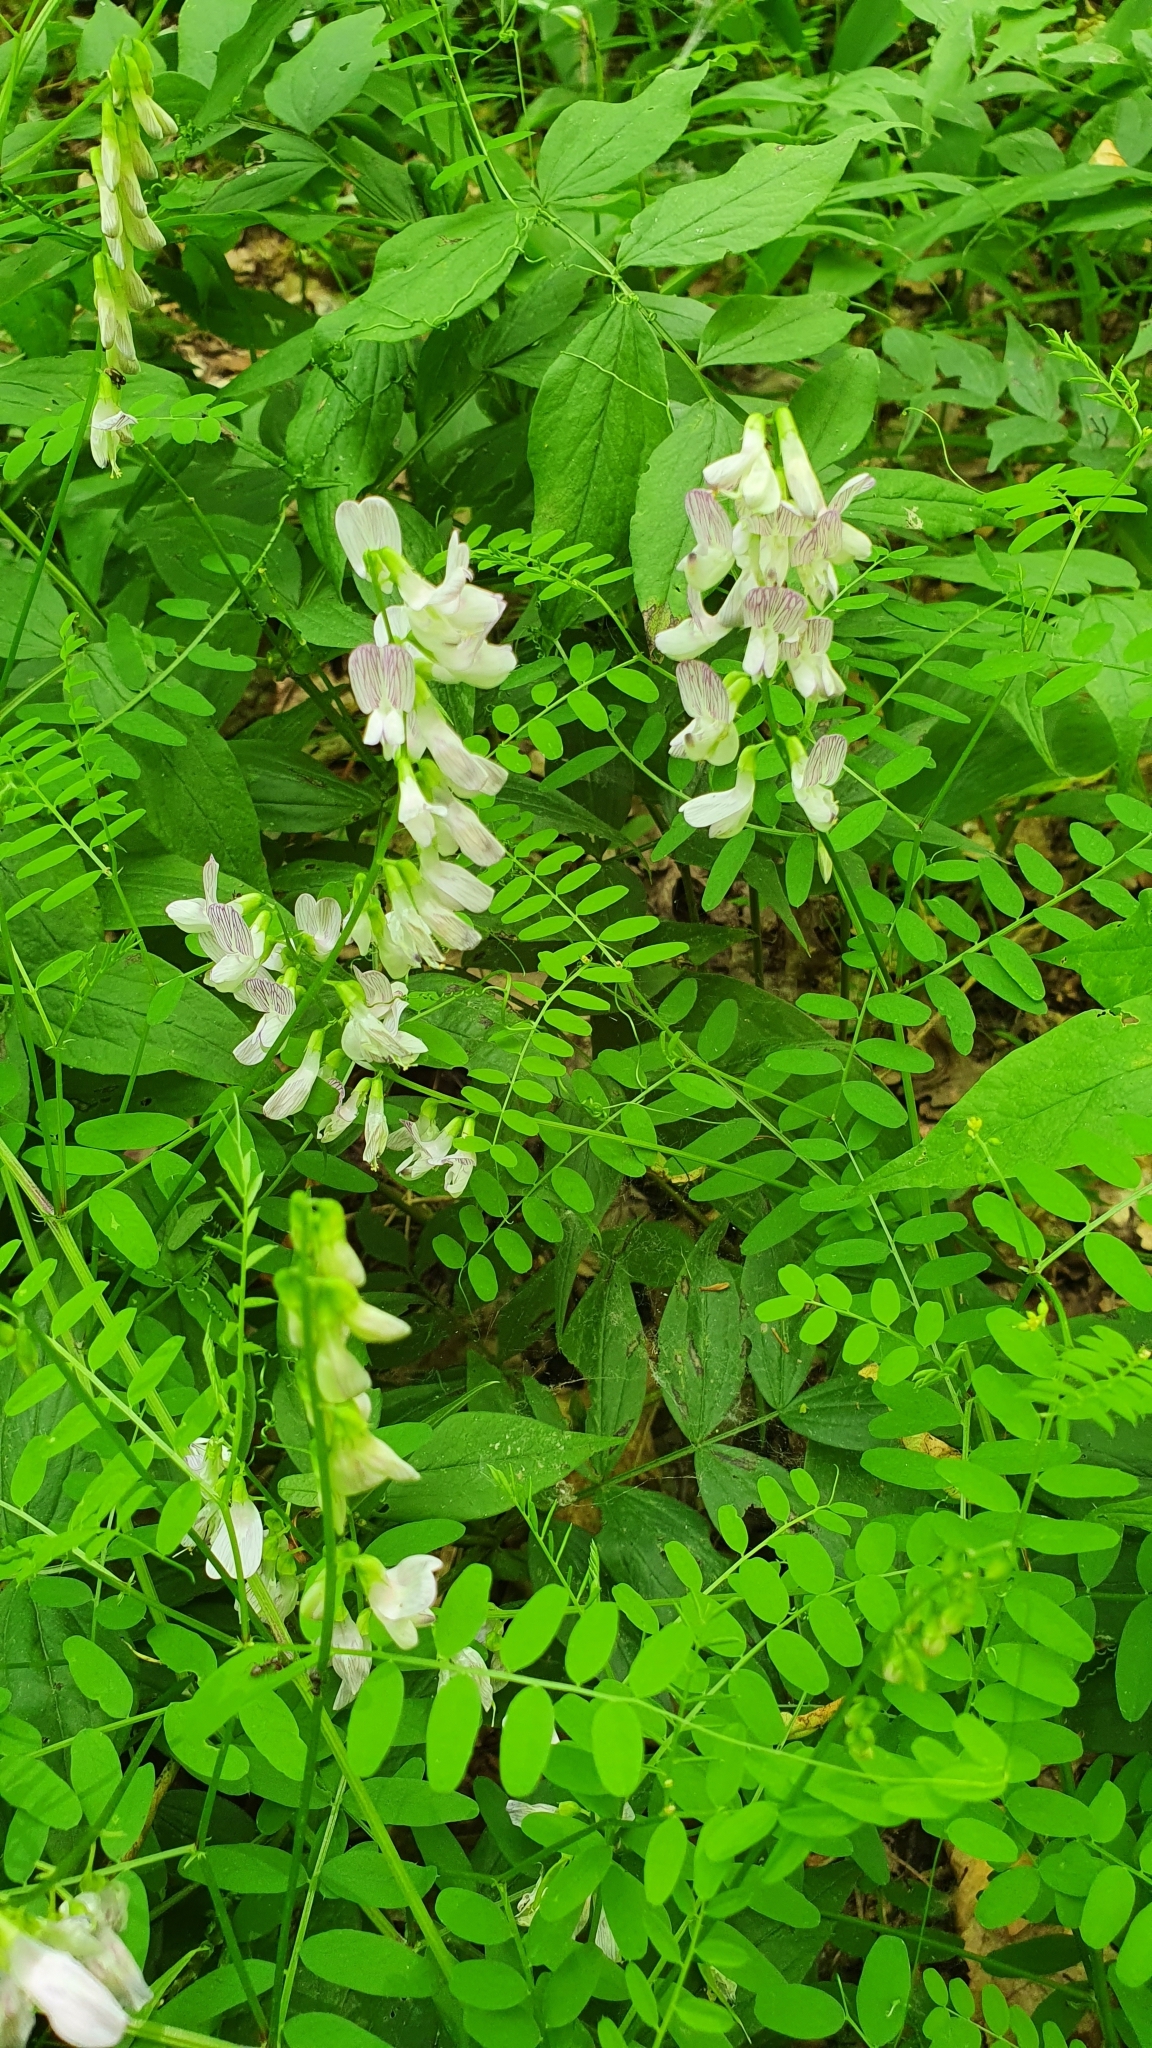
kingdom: Plantae
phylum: Tracheophyta
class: Magnoliopsida
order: Fabales
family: Fabaceae
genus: Vicia
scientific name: Vicia sylvatica
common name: Wood vetch
